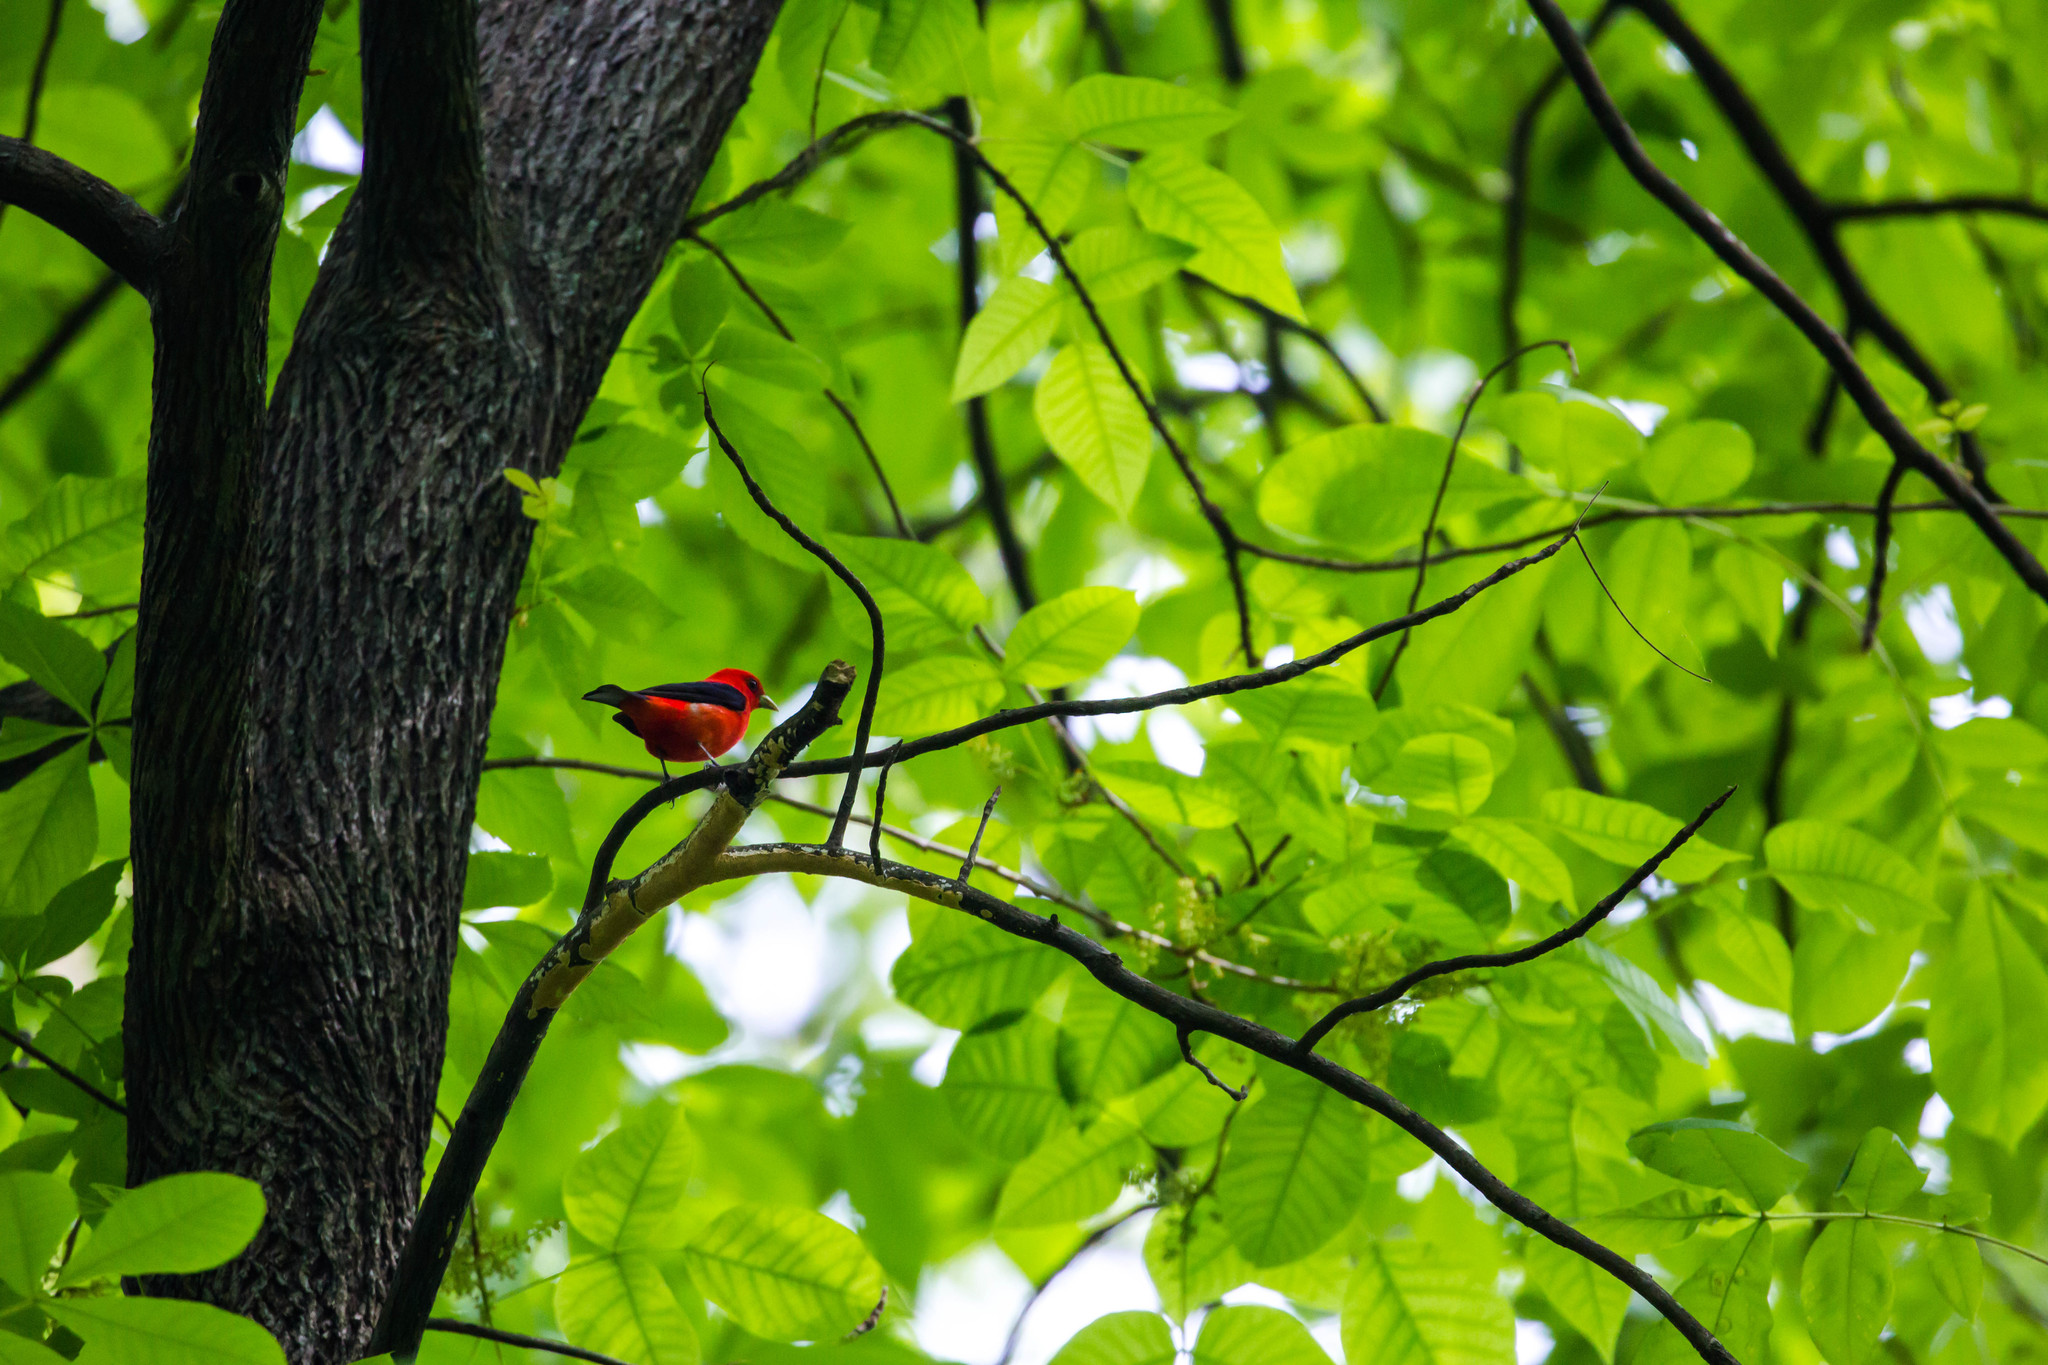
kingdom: Animalia
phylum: Chordata
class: Aves
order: Passeriformes
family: Cardinalidae
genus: Piranga
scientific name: Piranga olivacea
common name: Scarlet tanager
